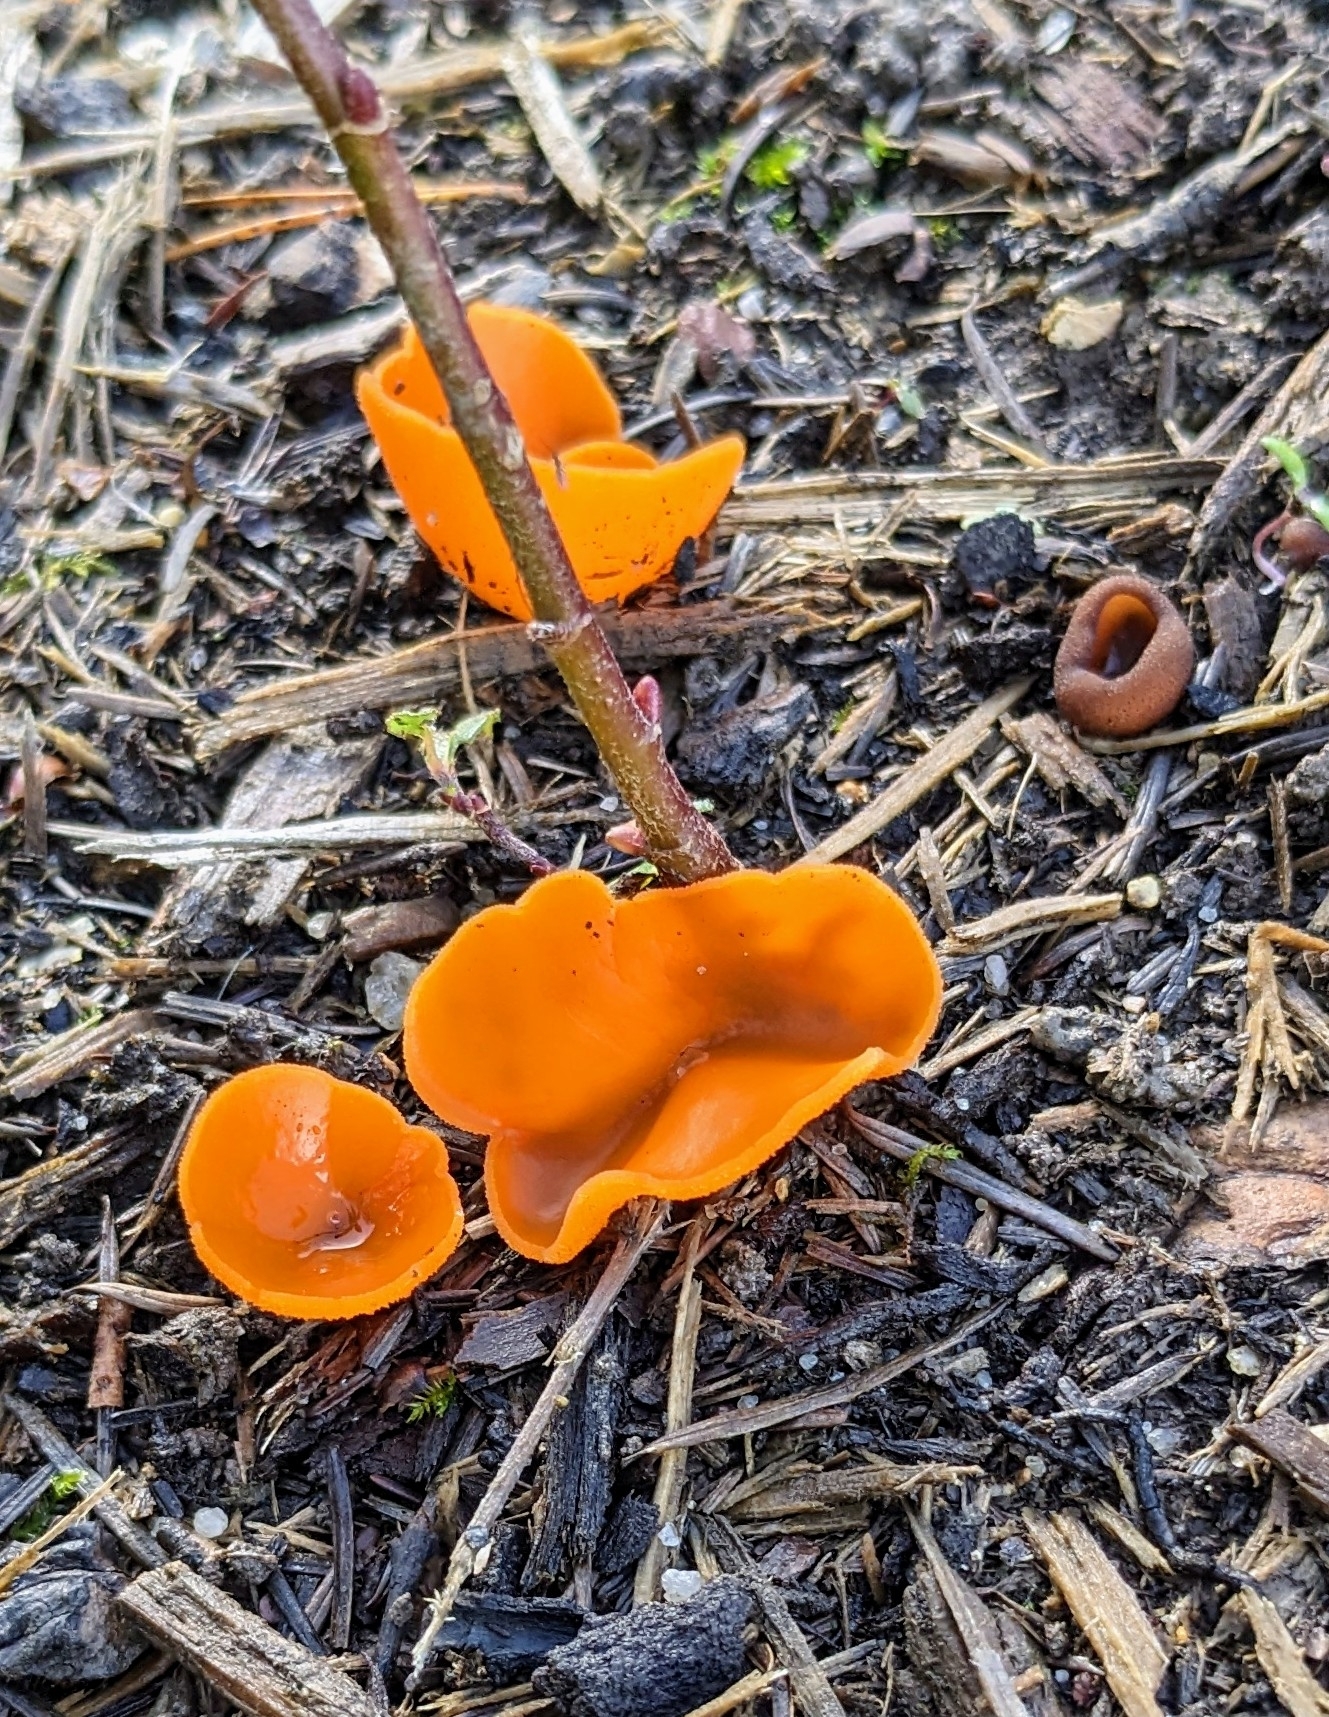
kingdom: Fungi
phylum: Ascomycota
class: Pezizomycetes
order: Pezizales
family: Pyronemataceae
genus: Aleuria
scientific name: Aleuria aurantia
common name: Orange peel fungus
